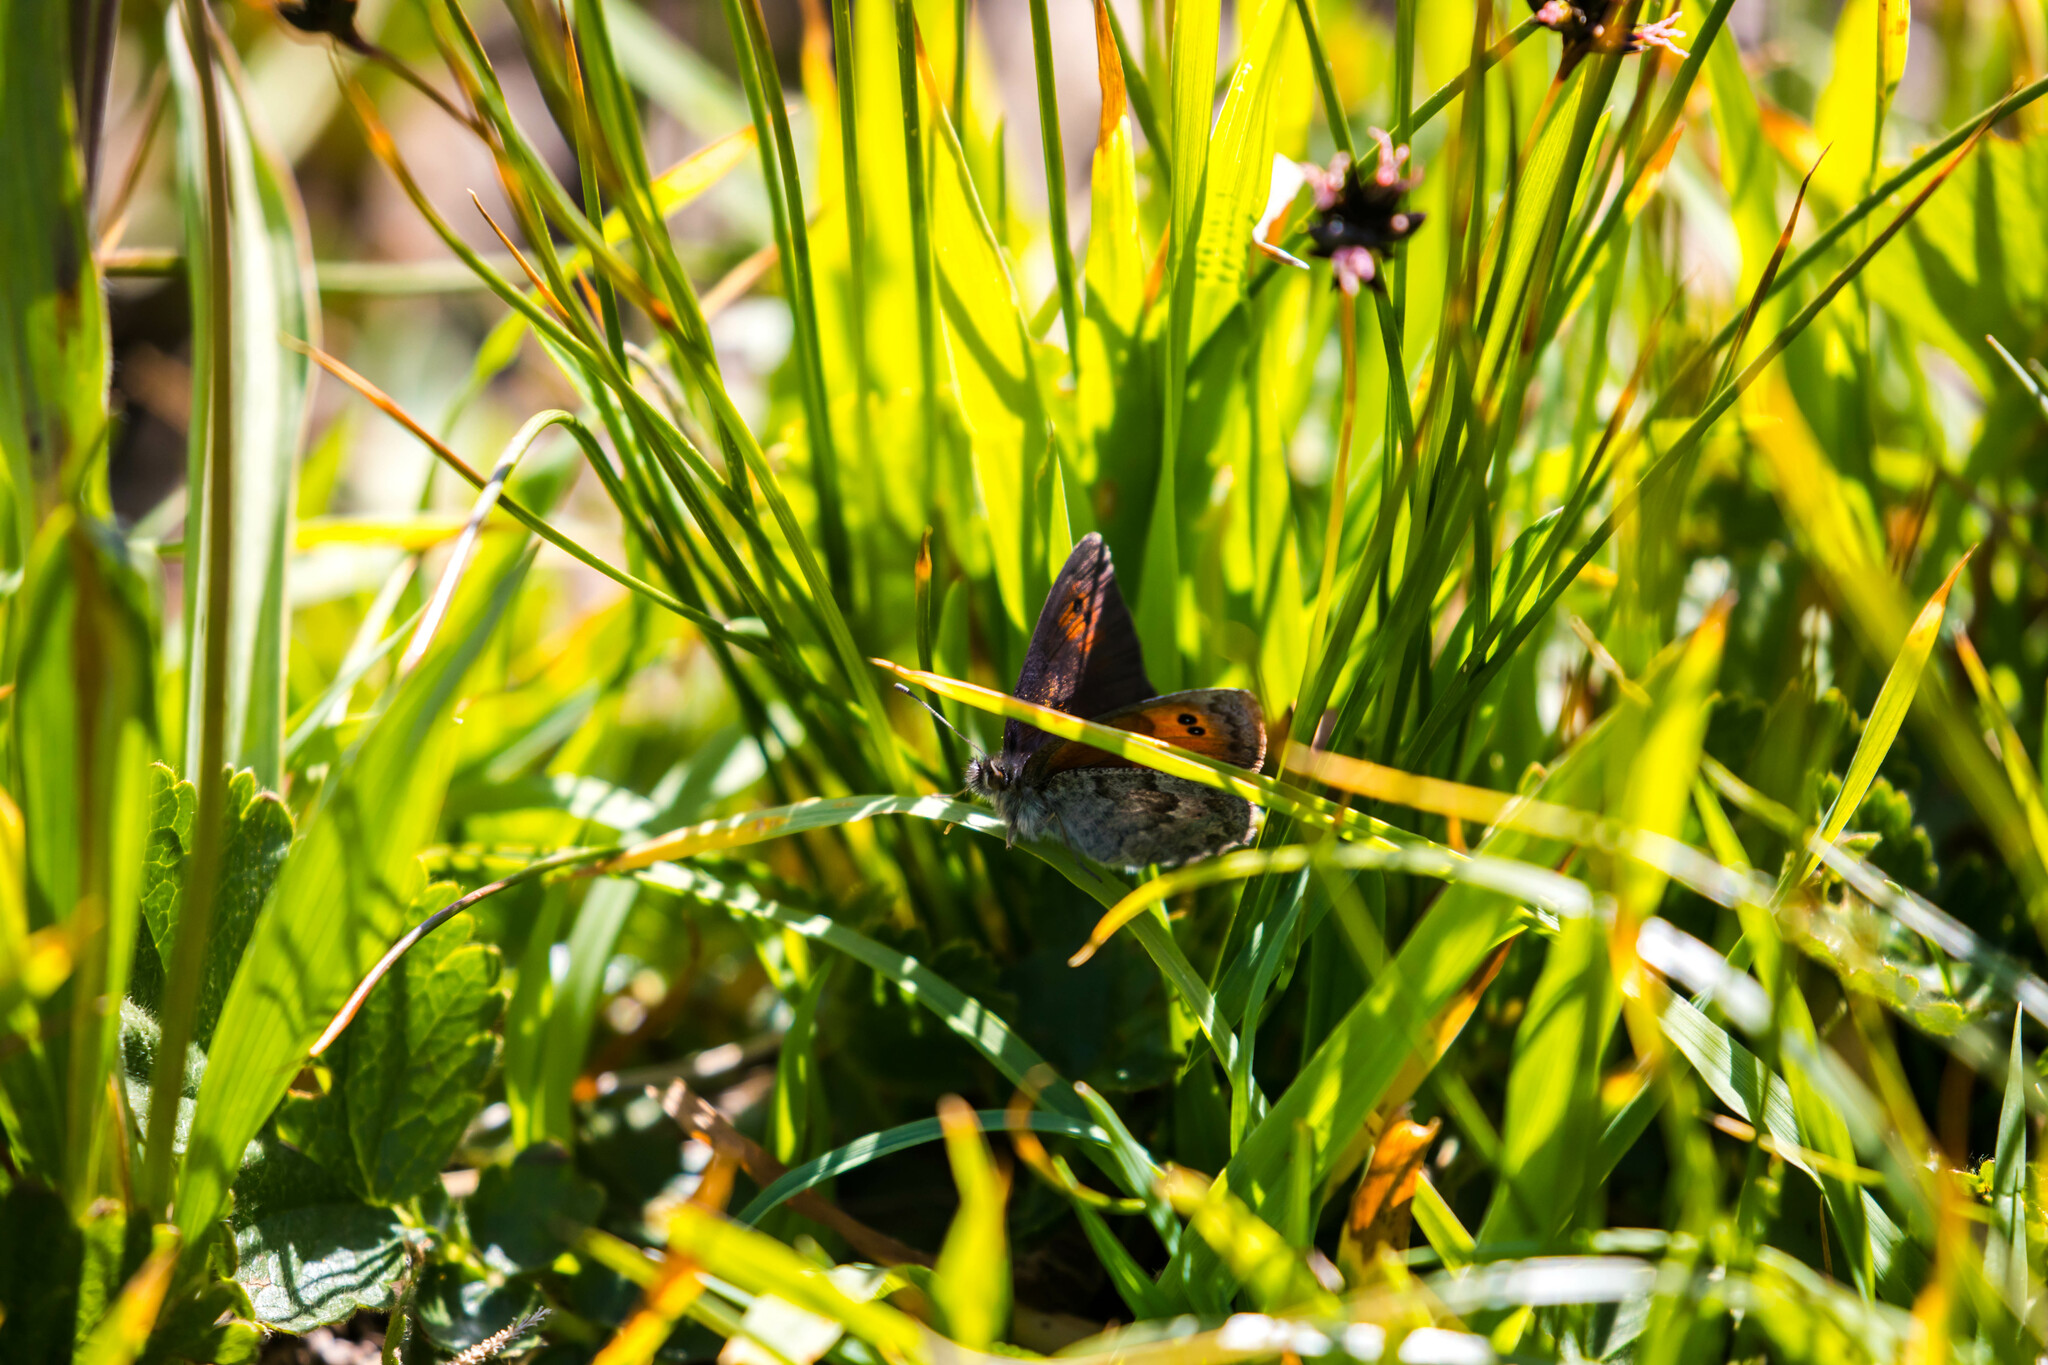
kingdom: Animalia
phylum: Arthropoda
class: Insecta
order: Lepidoptera
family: Nymphalidae
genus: Erebia
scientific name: Erebia cassioides
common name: Common brassy ringlet
